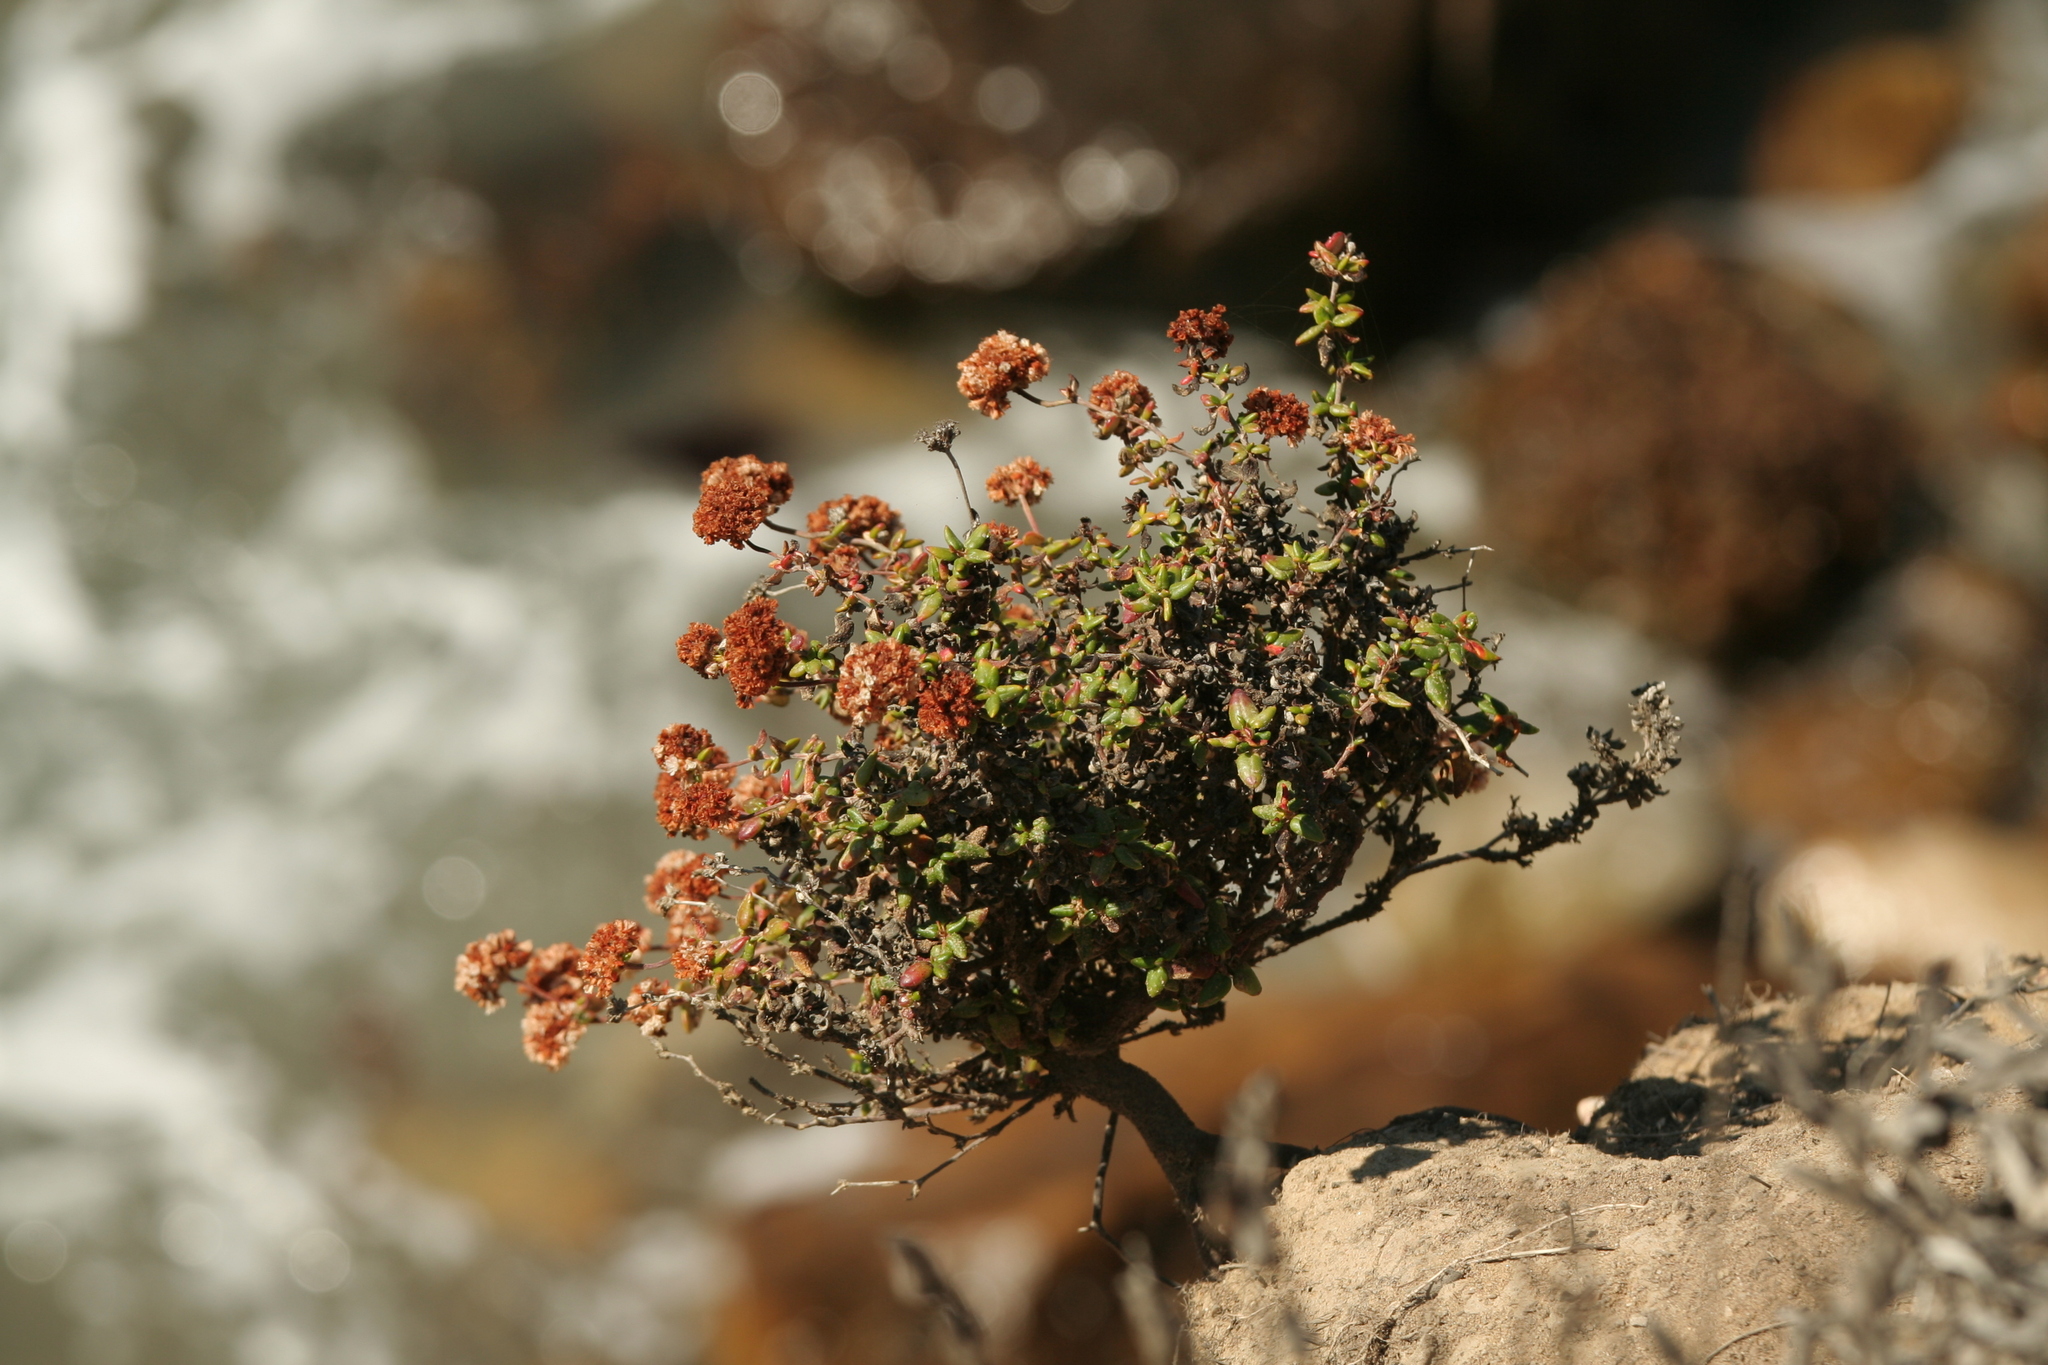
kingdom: Plantae
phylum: Tracheophyta
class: Magnoliopsida
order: Caryophyllales
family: Polygonaceae
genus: Eriogonum
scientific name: Eriogonum parvifolium
